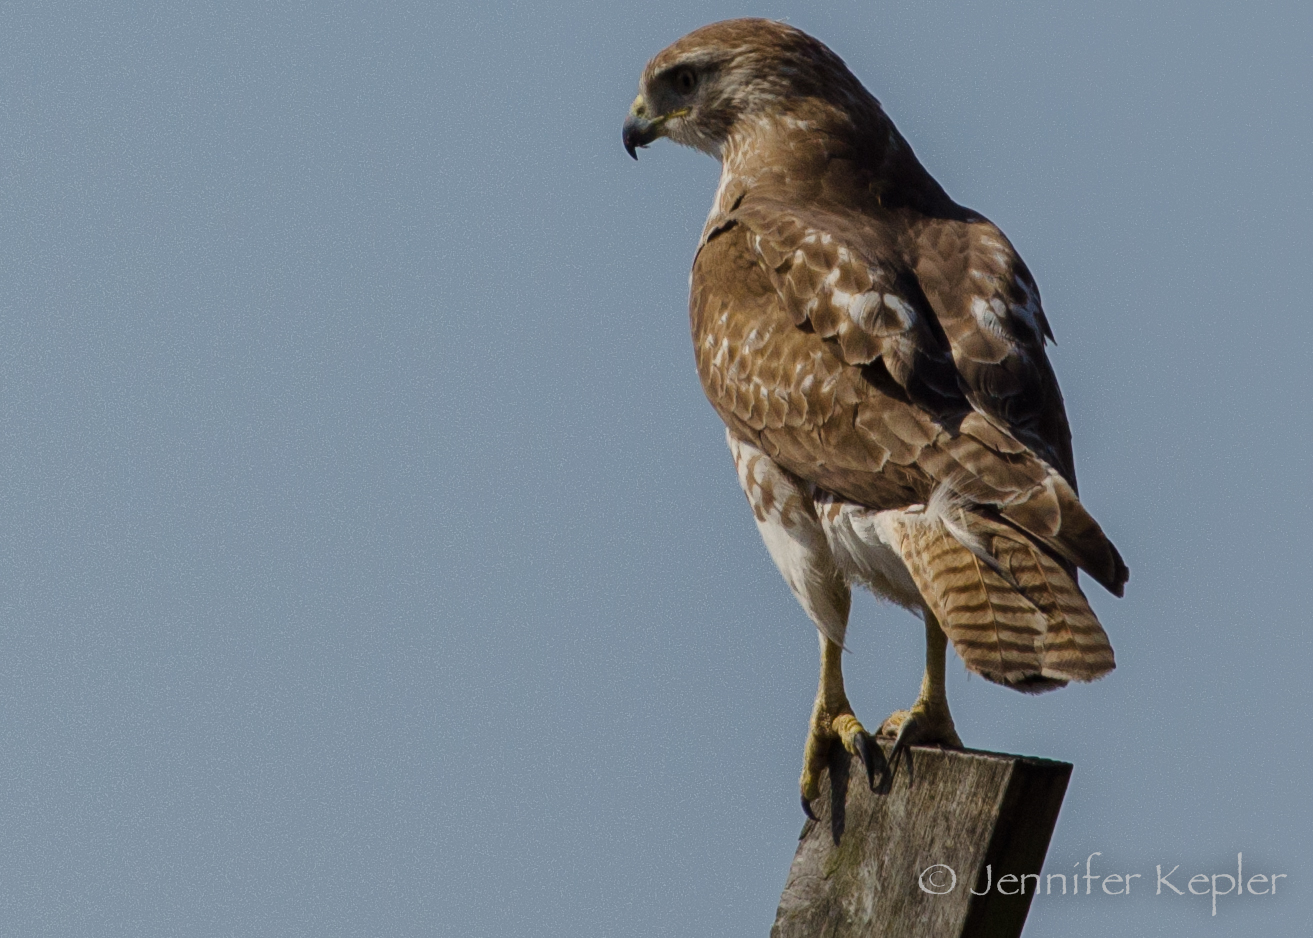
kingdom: Animalia
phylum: Chordata
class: Aves
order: Accipitriformes
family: Accipitridae
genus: Buteo
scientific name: Buteo jamaicensis
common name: Red-tailed hawk
